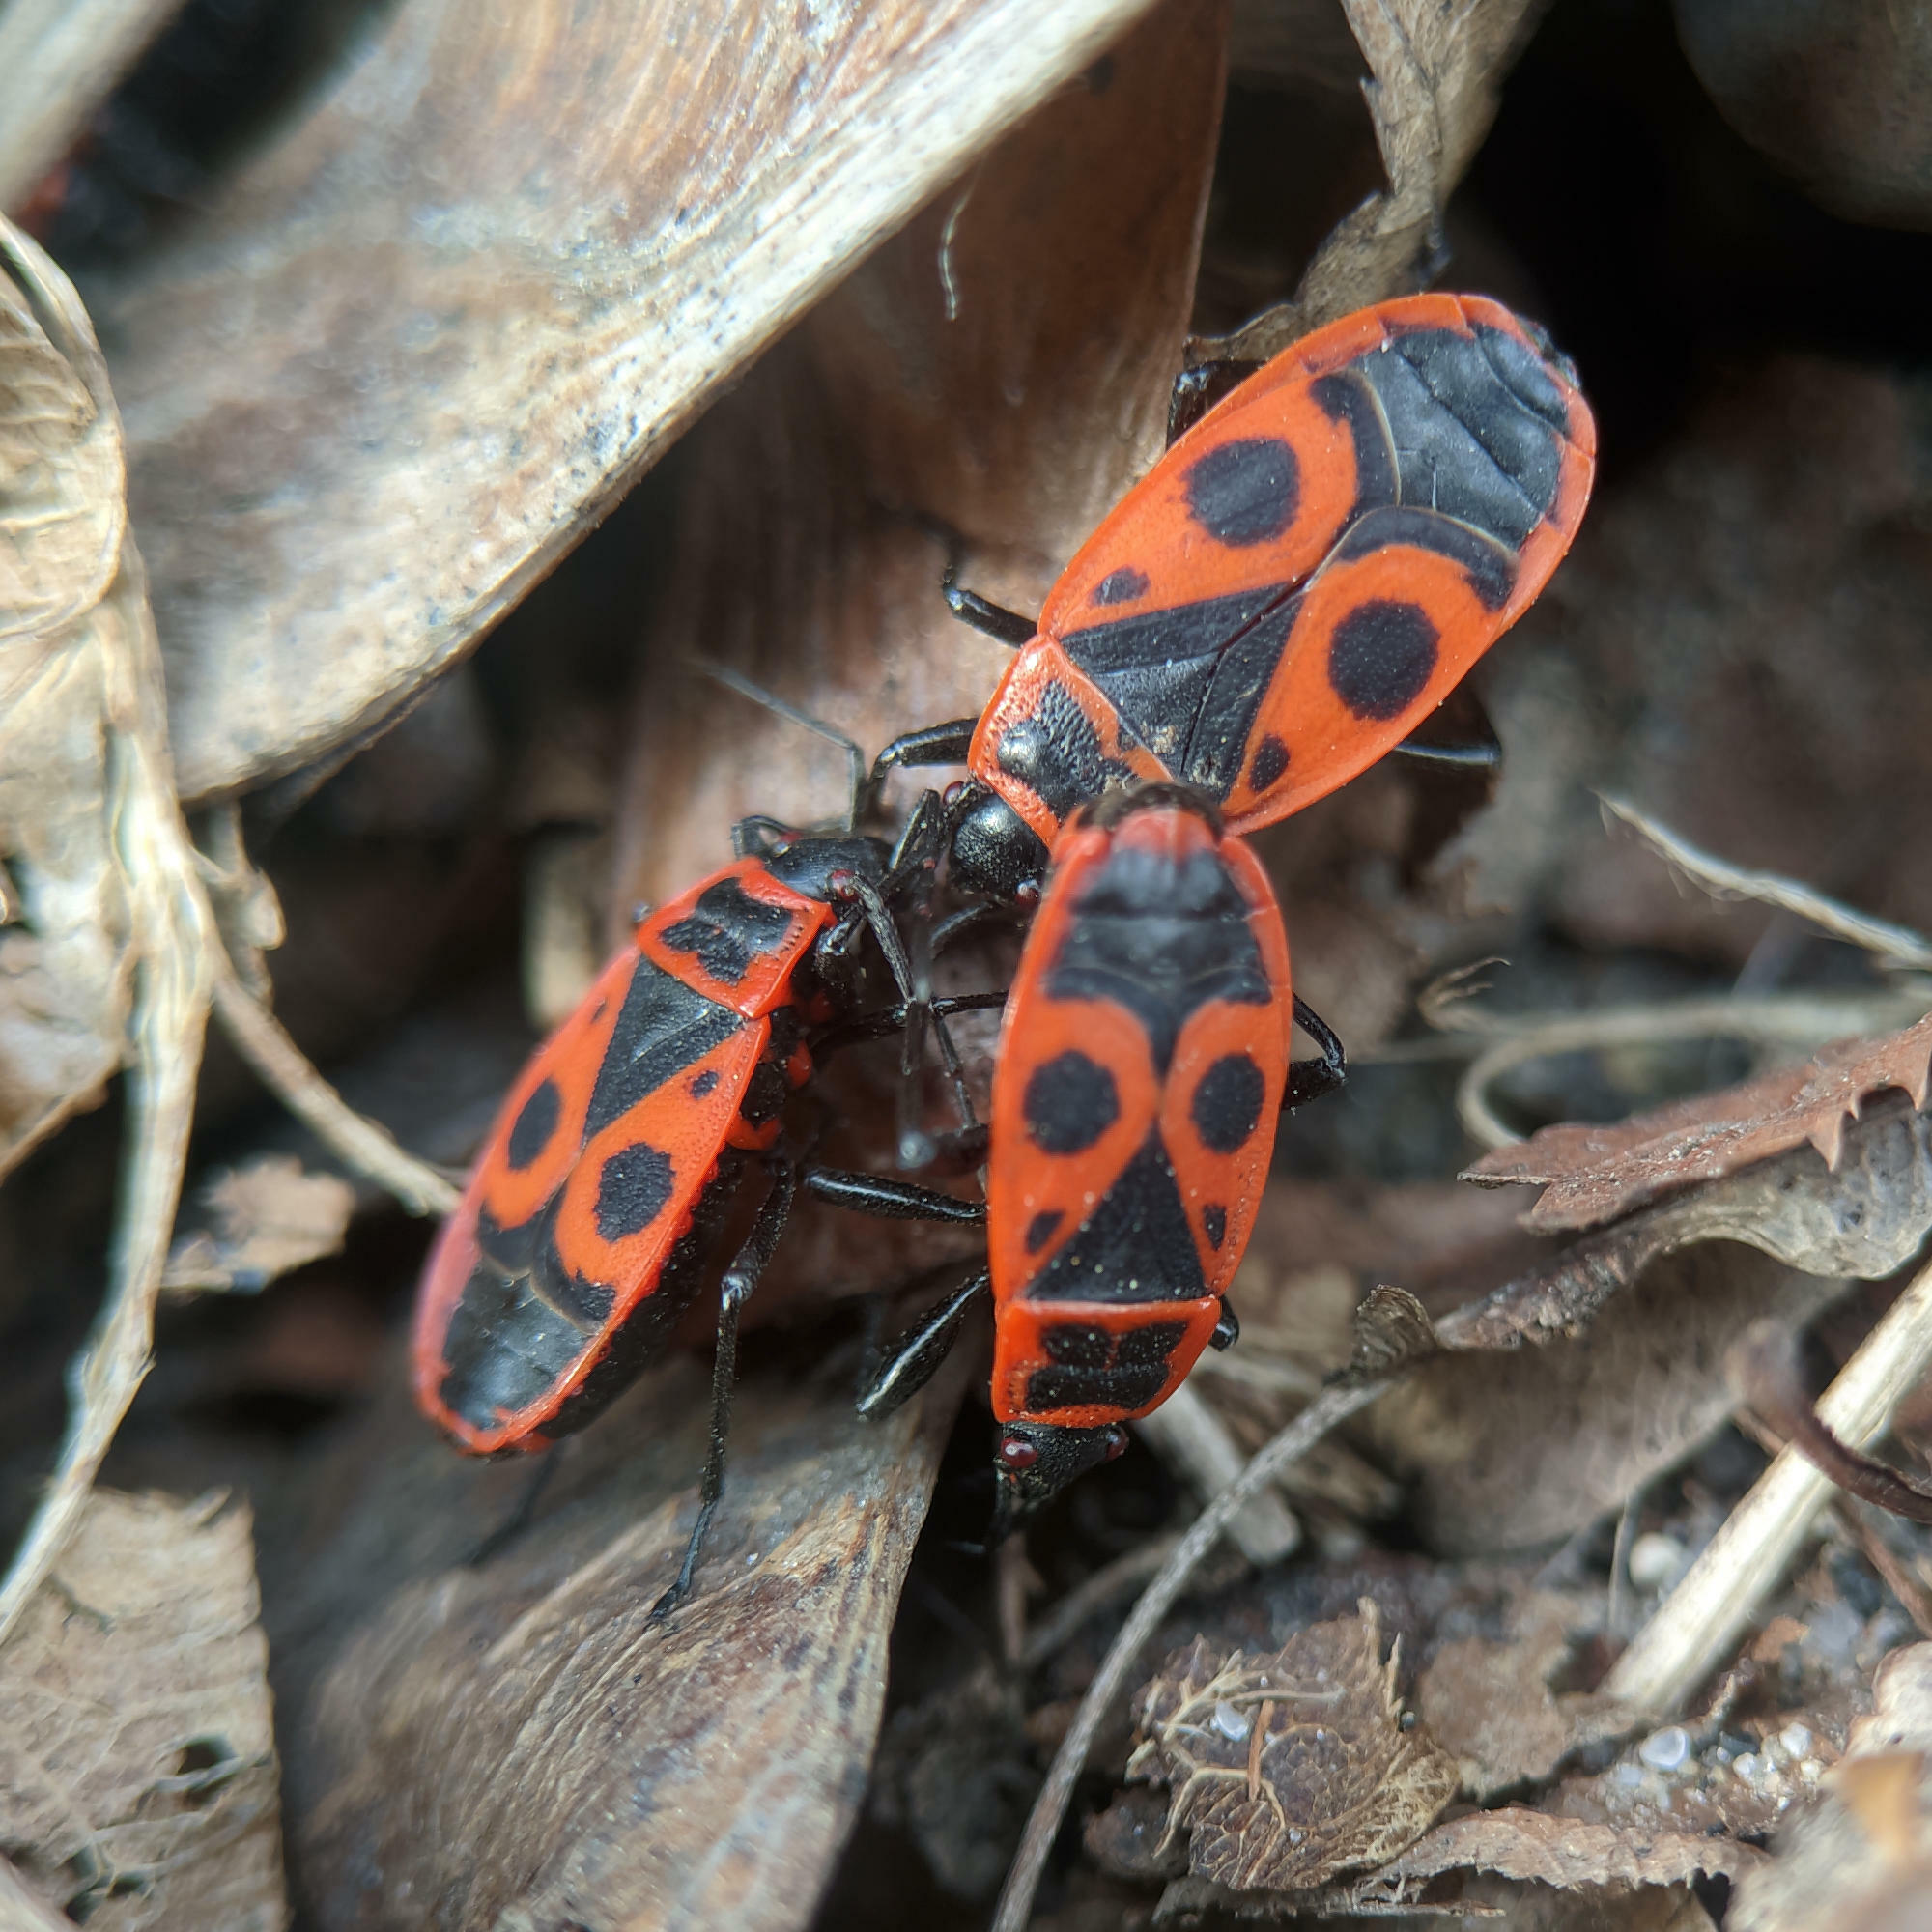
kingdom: Animalia
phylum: Arthropoda
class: Insecta
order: Hemiptera
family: Pyrrhocoridae
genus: Pyrrhocoris
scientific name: Pyrrhocoris apterus
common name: Firebug
